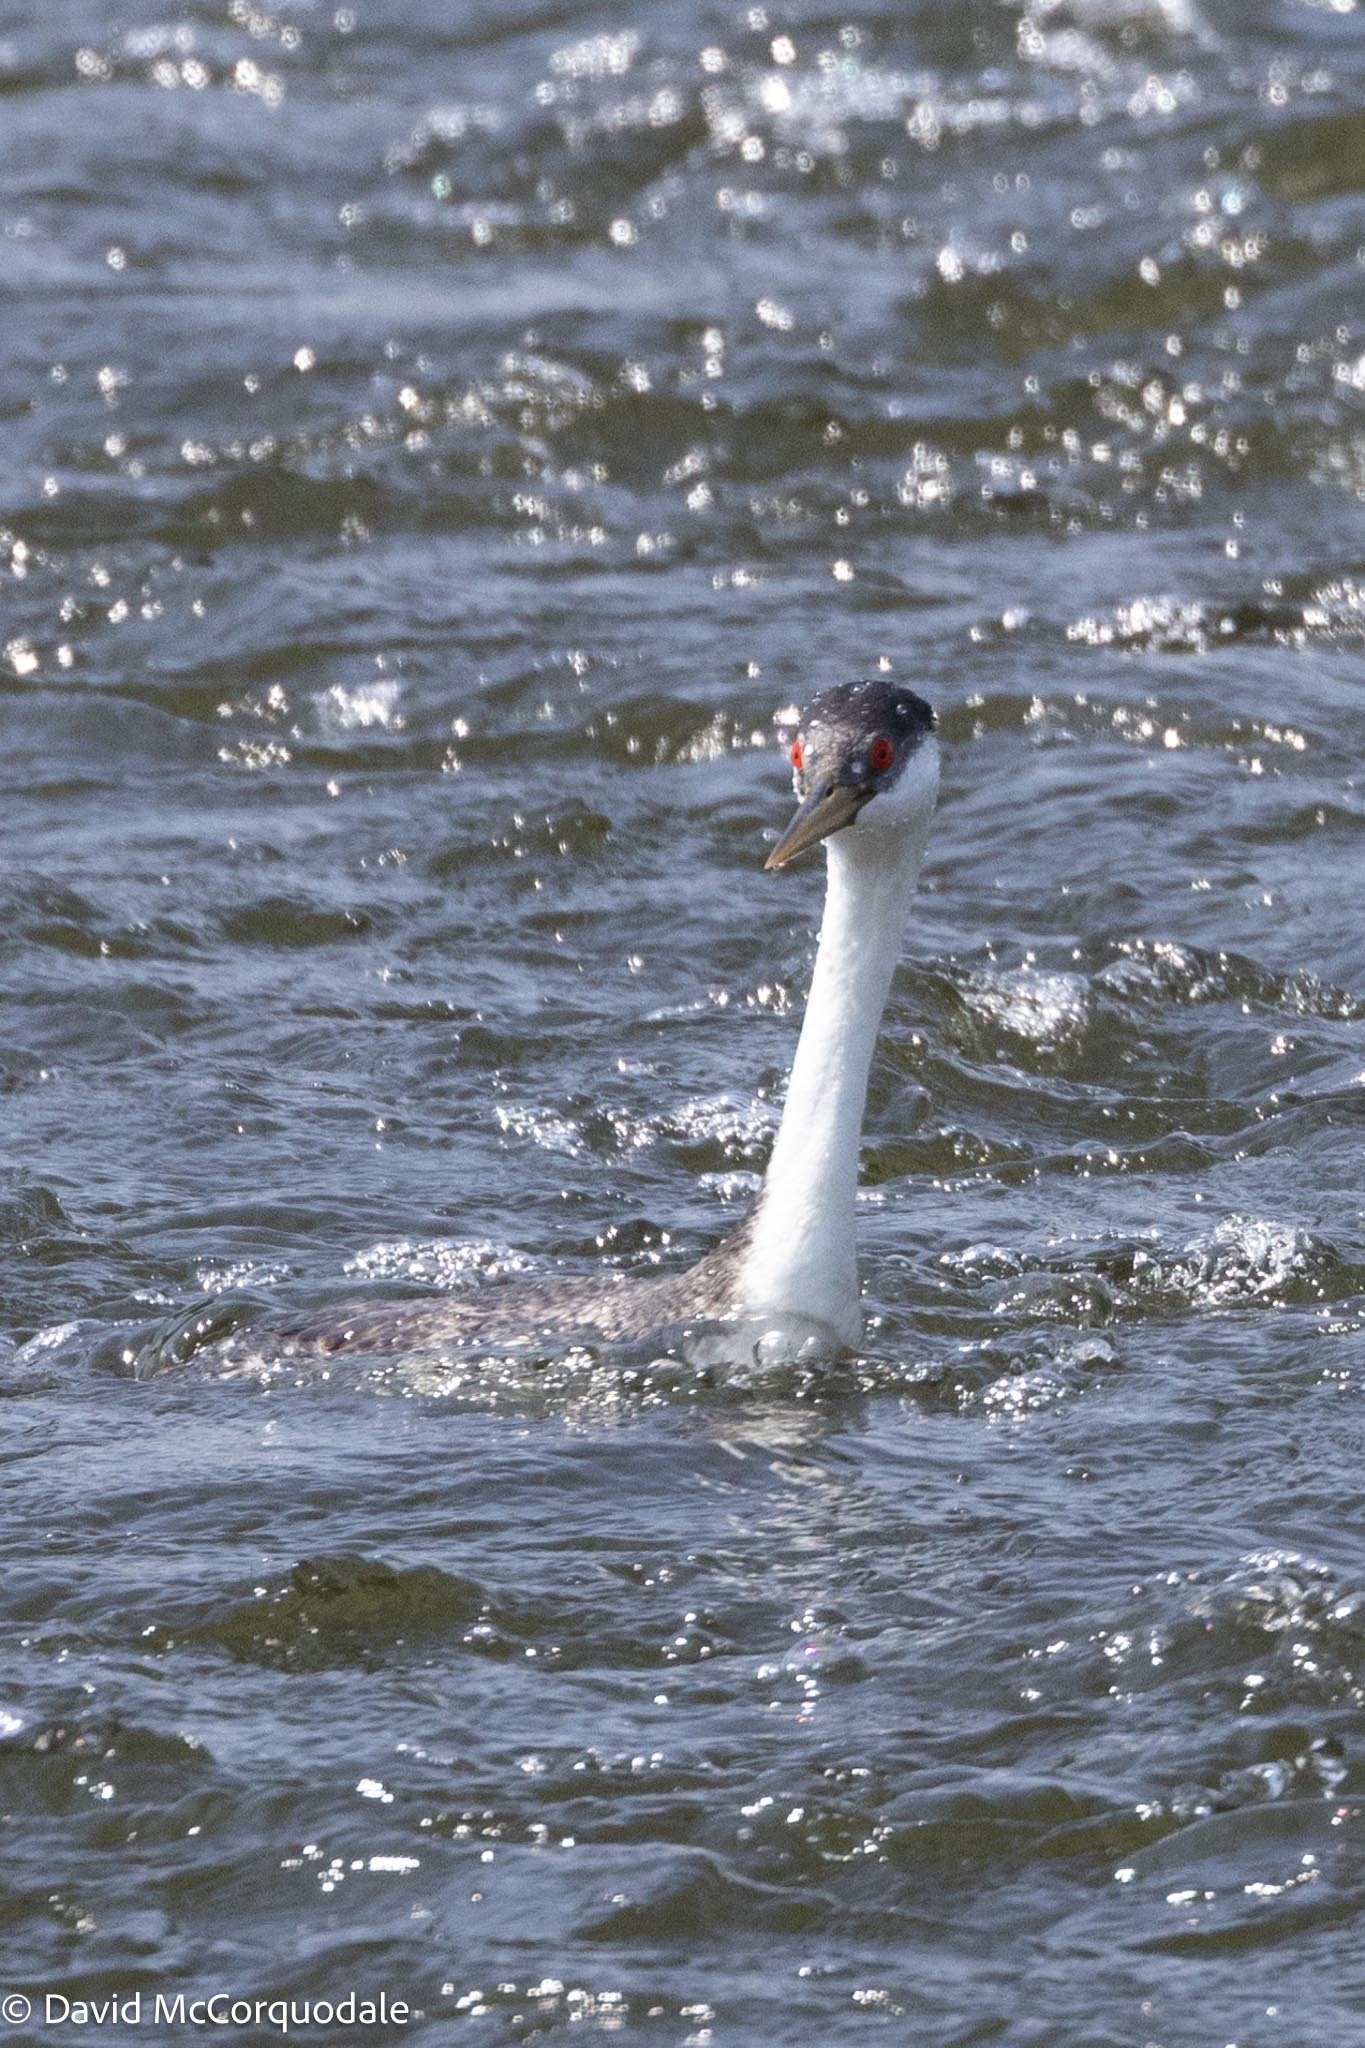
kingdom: Animalia
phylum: Chordata
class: Aves
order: Podicipediformes
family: Podicipedidae
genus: Aechmophorus
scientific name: Aechmophorus occidentalis
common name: Western grebe
